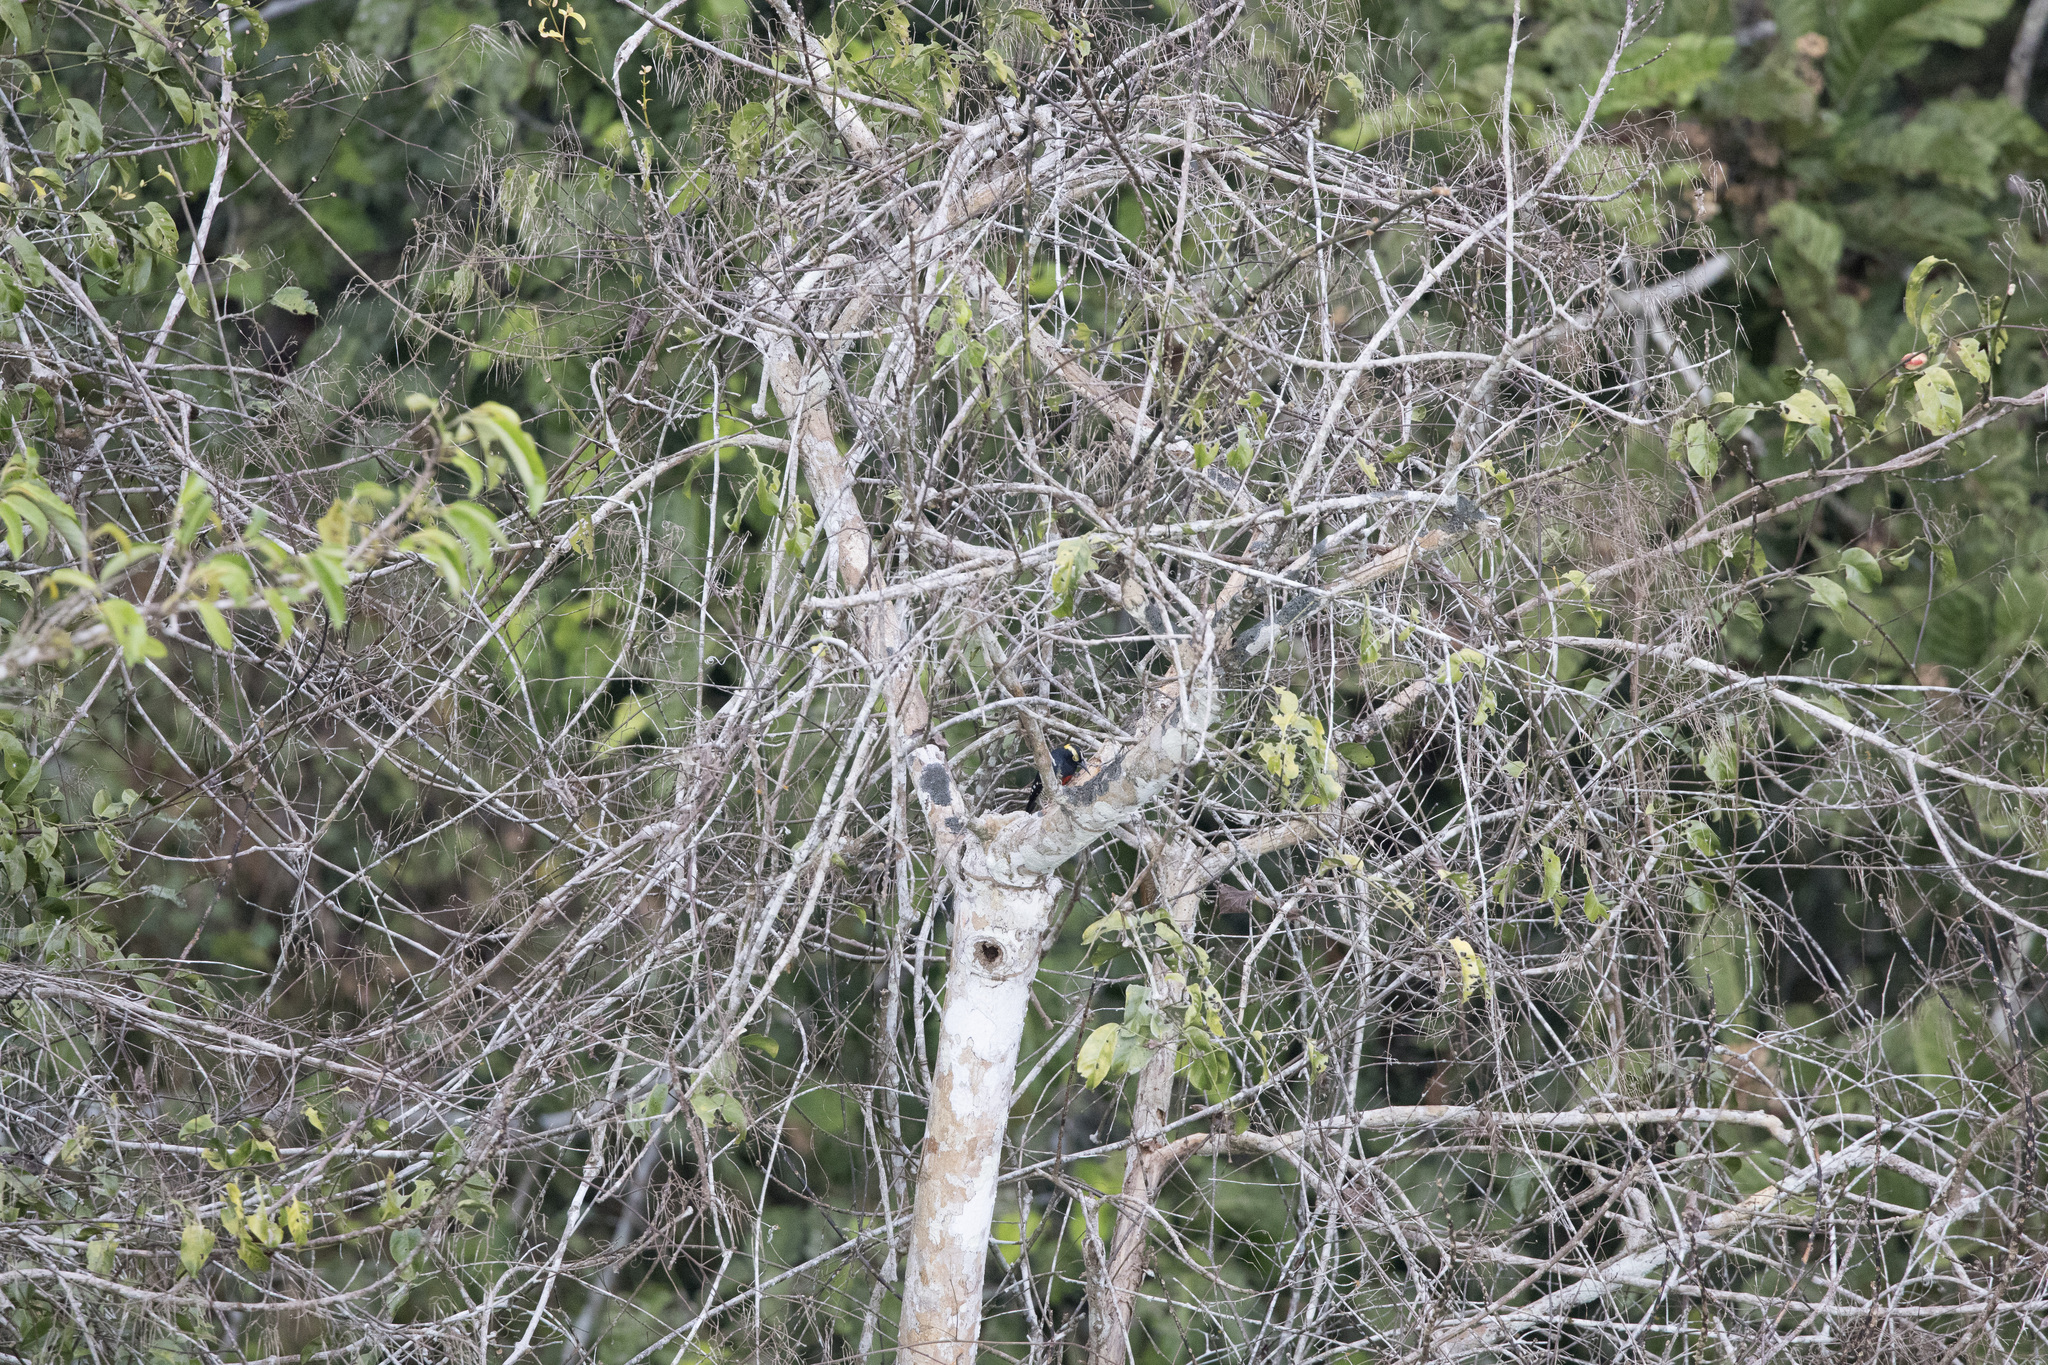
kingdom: Animalia
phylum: Chordata
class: Aves
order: Piciformes
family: Picidae
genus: Melanerpes
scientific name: Melanerpes cruentatus
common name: Yellow-tufted woodpecker
